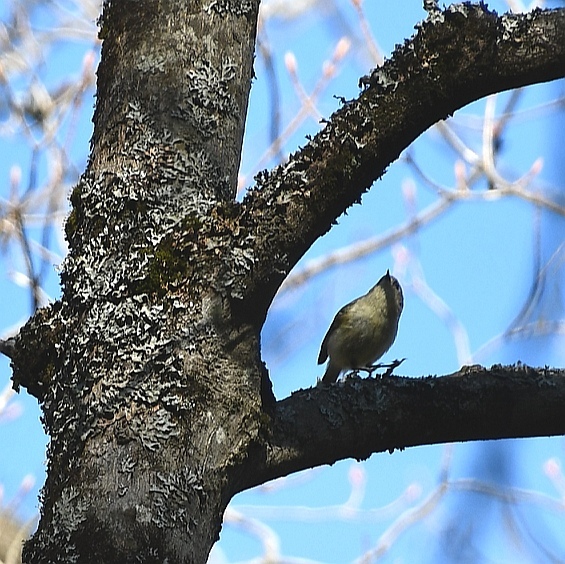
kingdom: Animalia
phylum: Chordata
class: Aves
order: Passeriformes
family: Regulidae
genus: Regulus
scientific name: Regulus calendula
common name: Ruby-crowned kinglet
